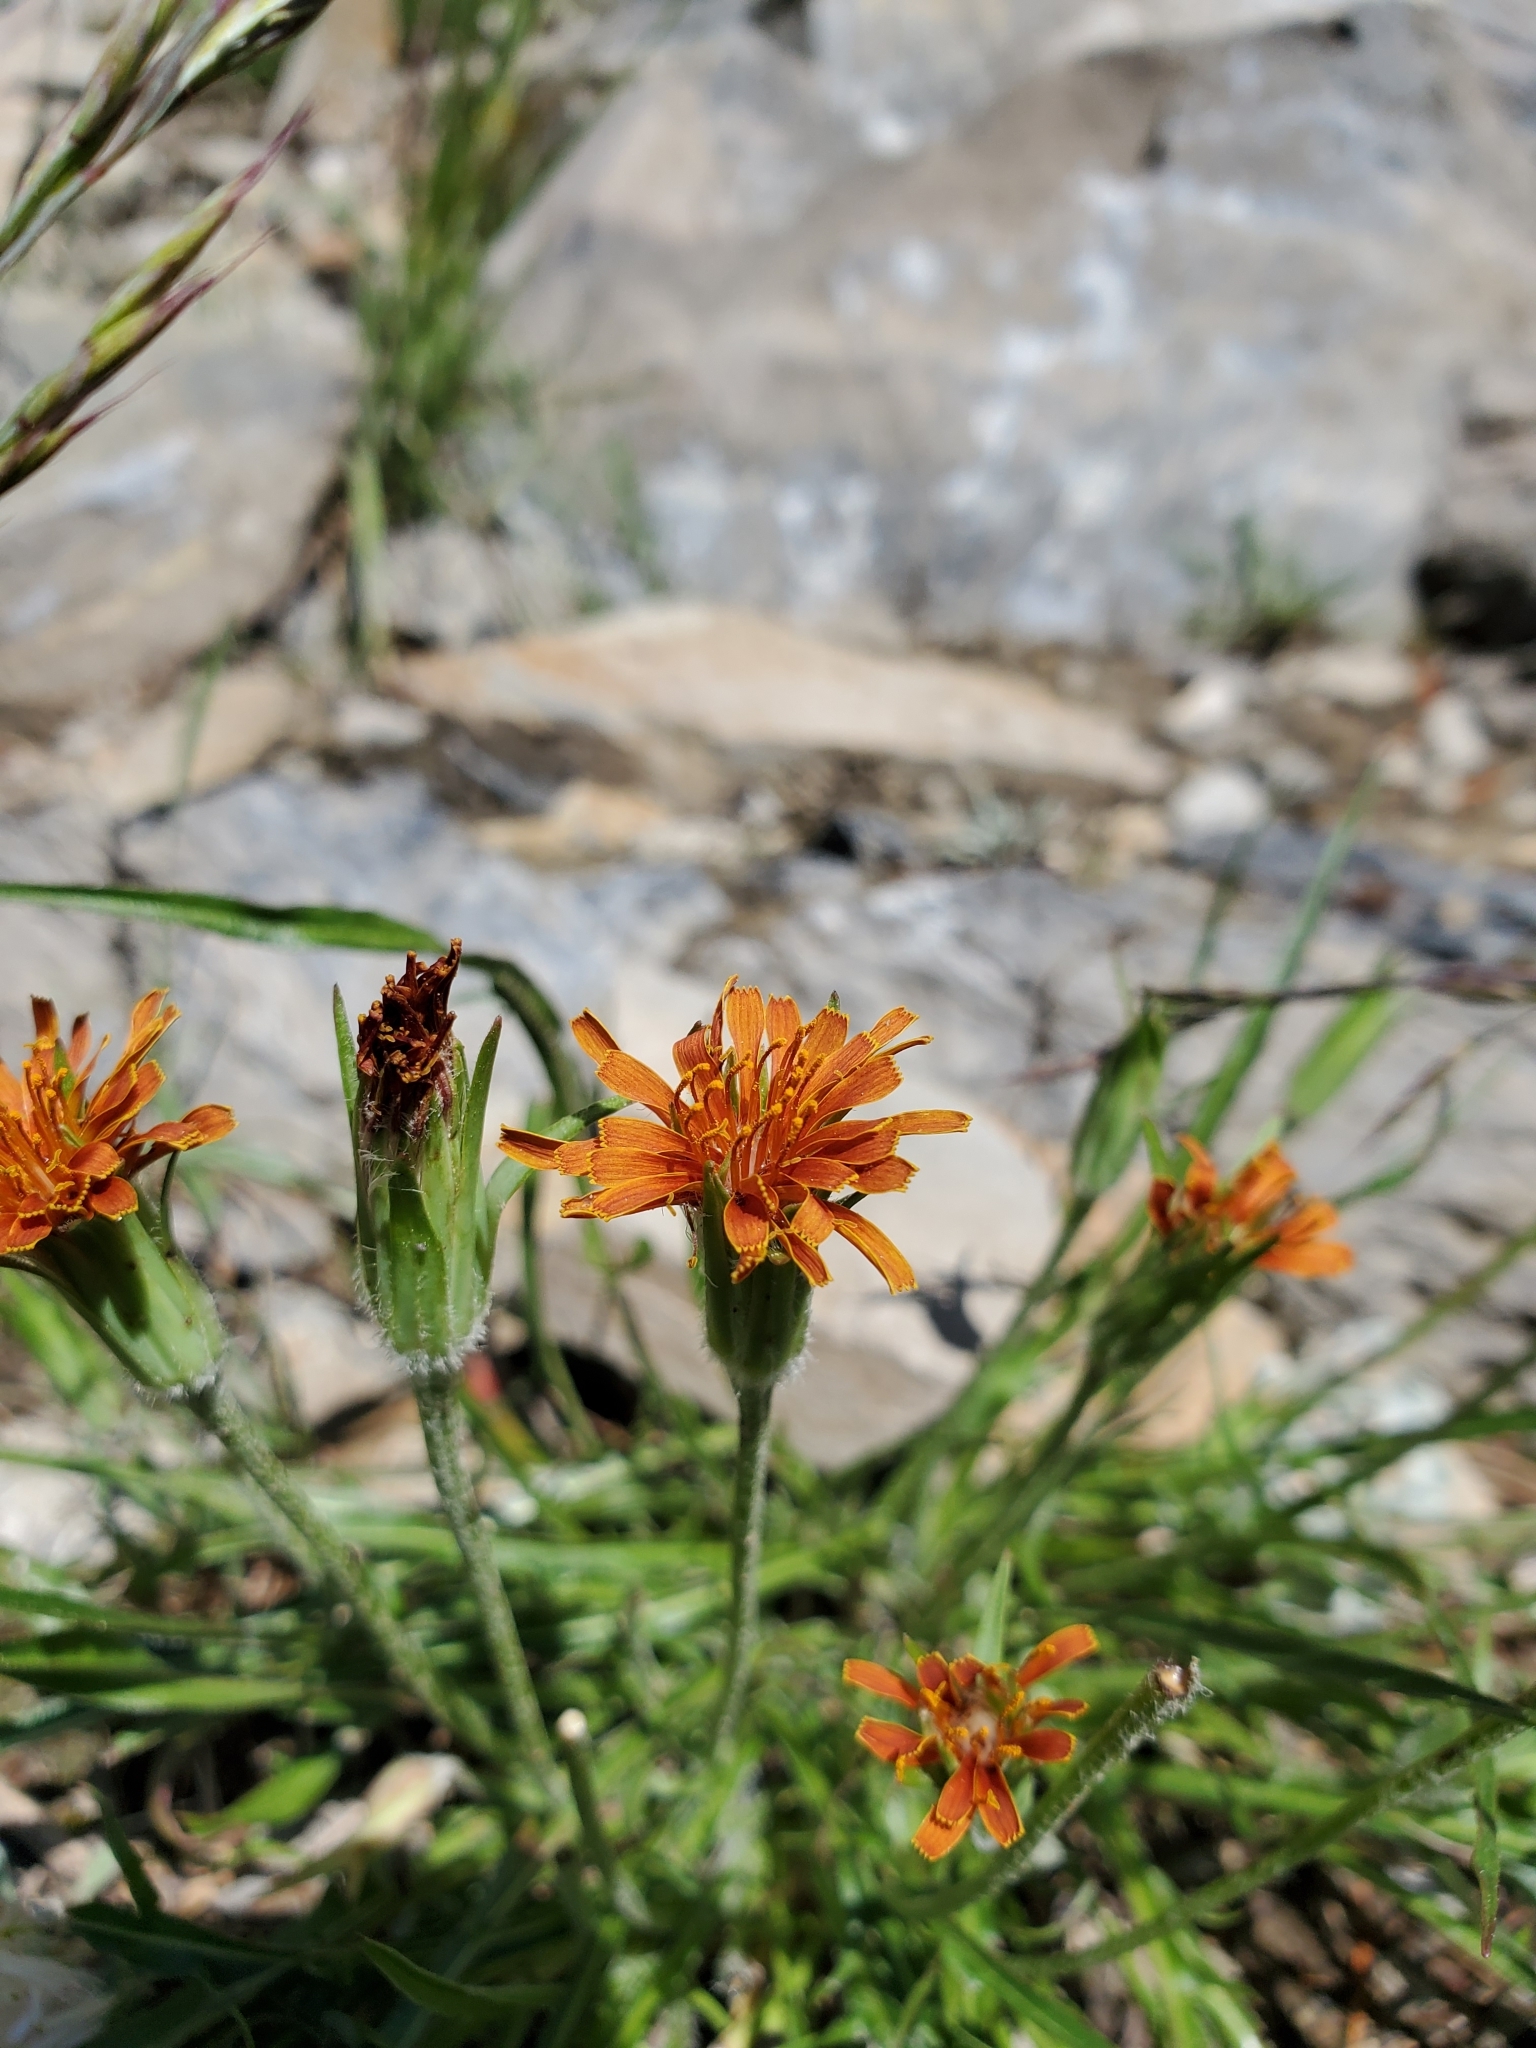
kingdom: Plantae
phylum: Tracheophyta
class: Magnoliopsida
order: Asterales
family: Asteraceae
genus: Agoseris
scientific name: Agoseris aurantiaca
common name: Mountain agoseris
